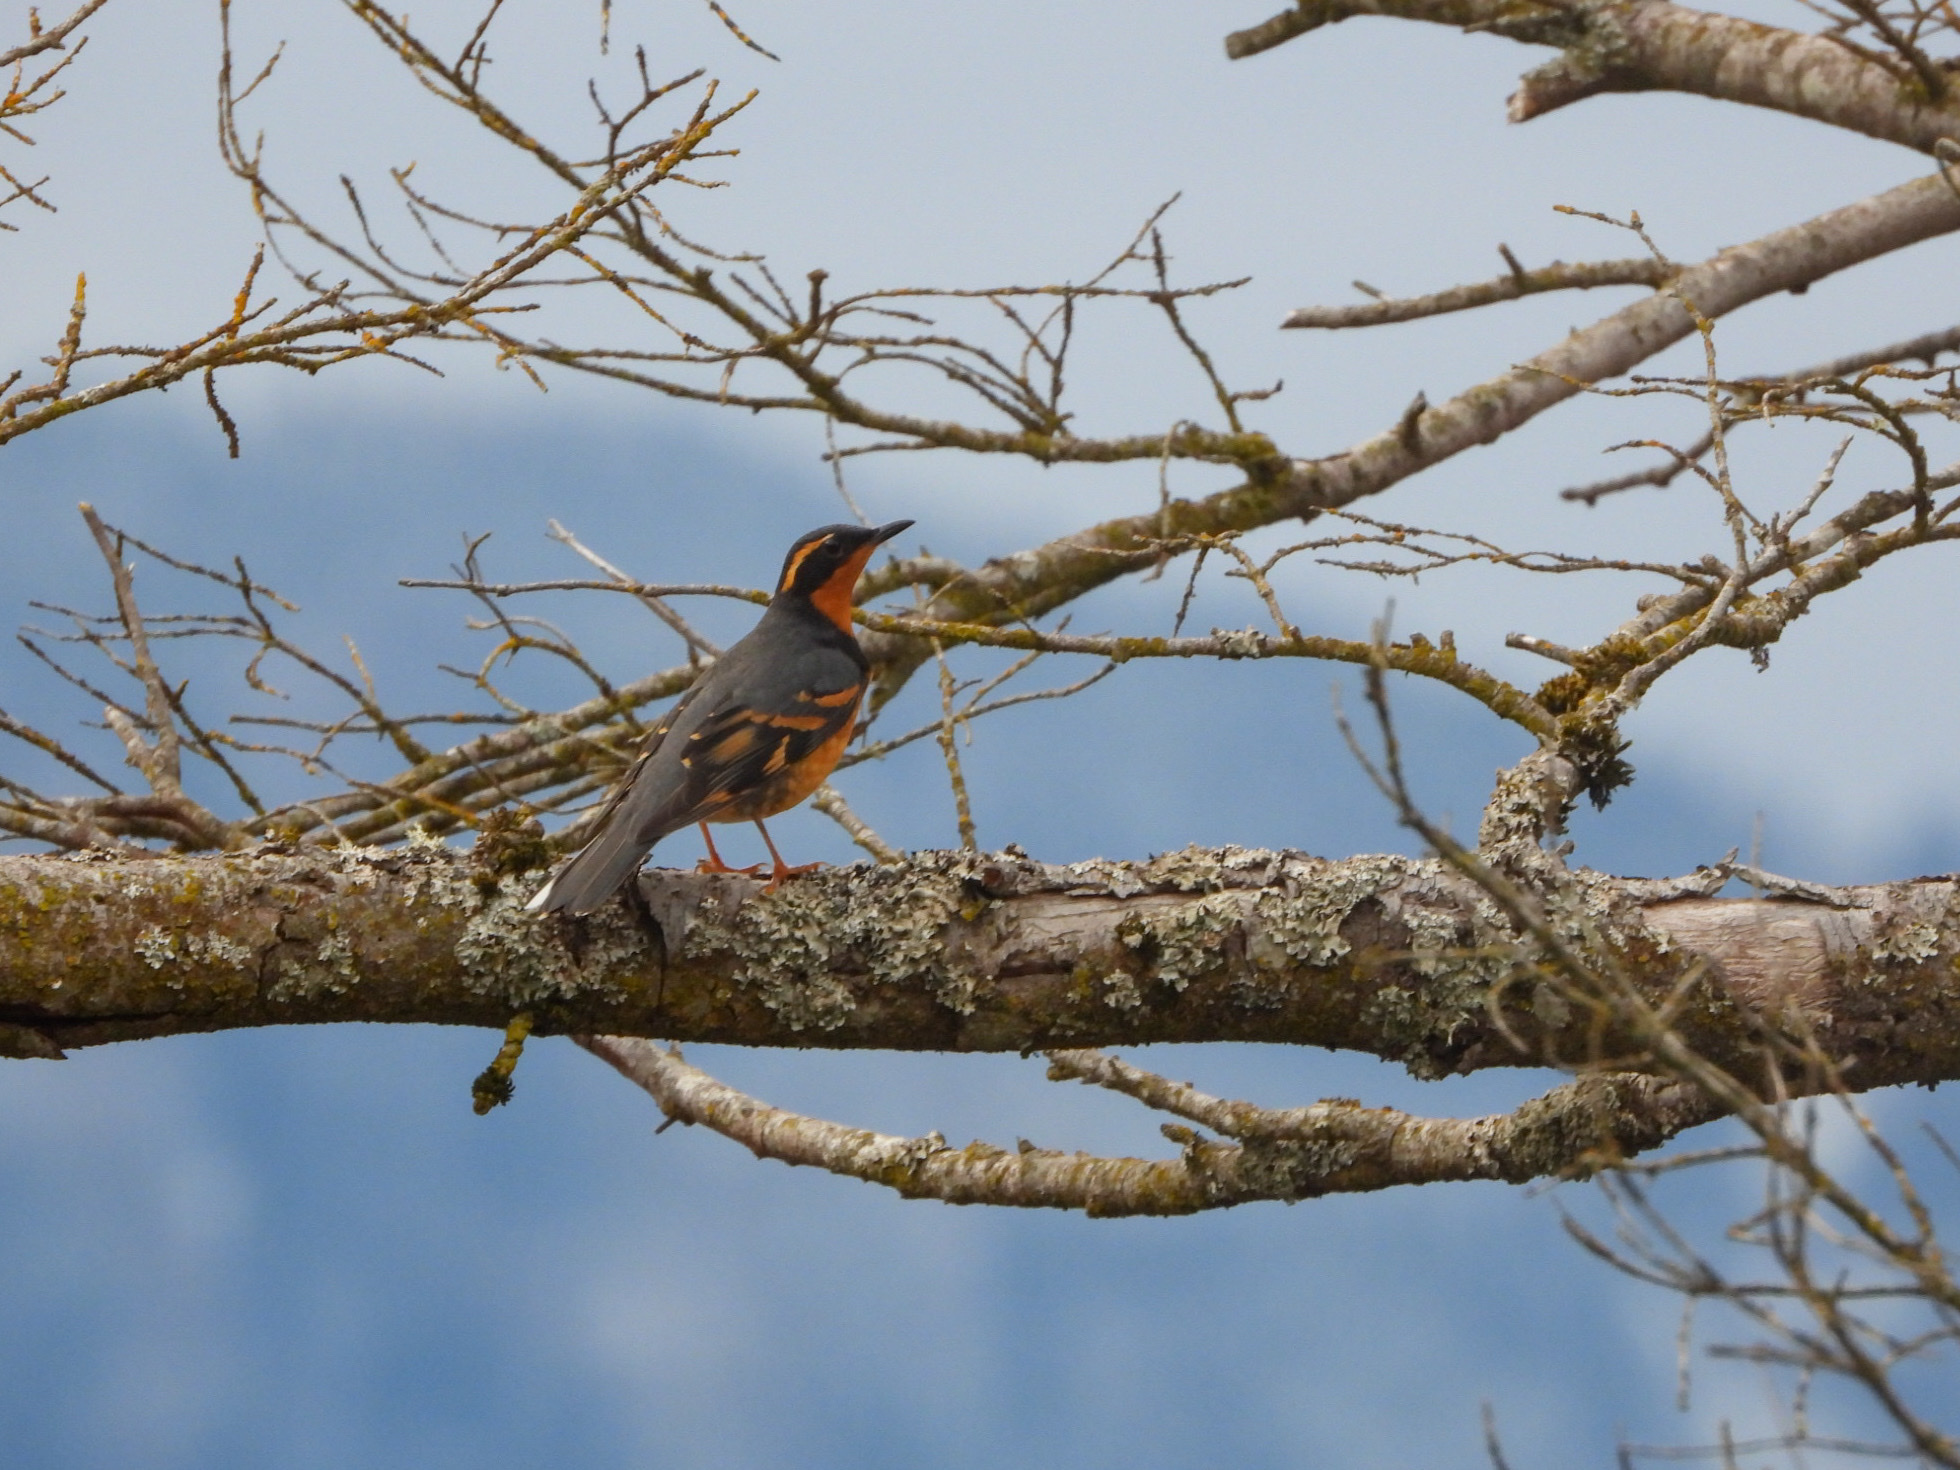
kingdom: Animalia
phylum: Chordata
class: Aves
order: Passeriformes
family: Turdidae
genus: Ixoreus
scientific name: Ixoreus naevius
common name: Varied thrush
